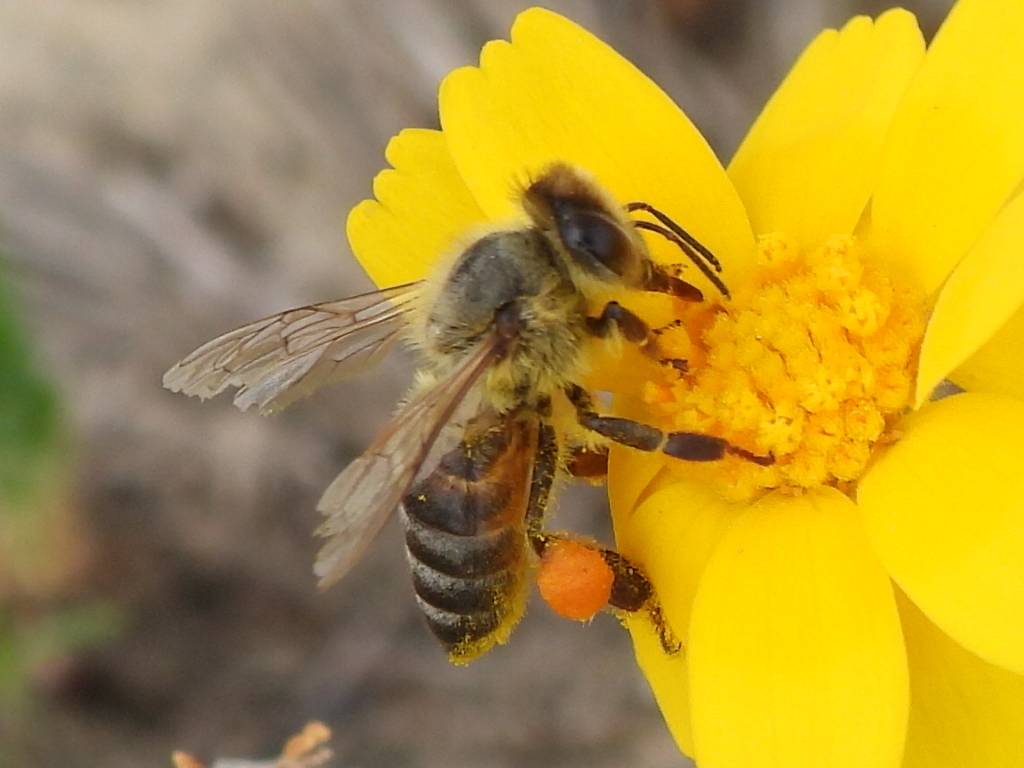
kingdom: Animalia
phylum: Arthropoda
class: Insecta
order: Hymenoptera
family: Apidae
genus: Apis
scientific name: Apis mellifera
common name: Honey bee
